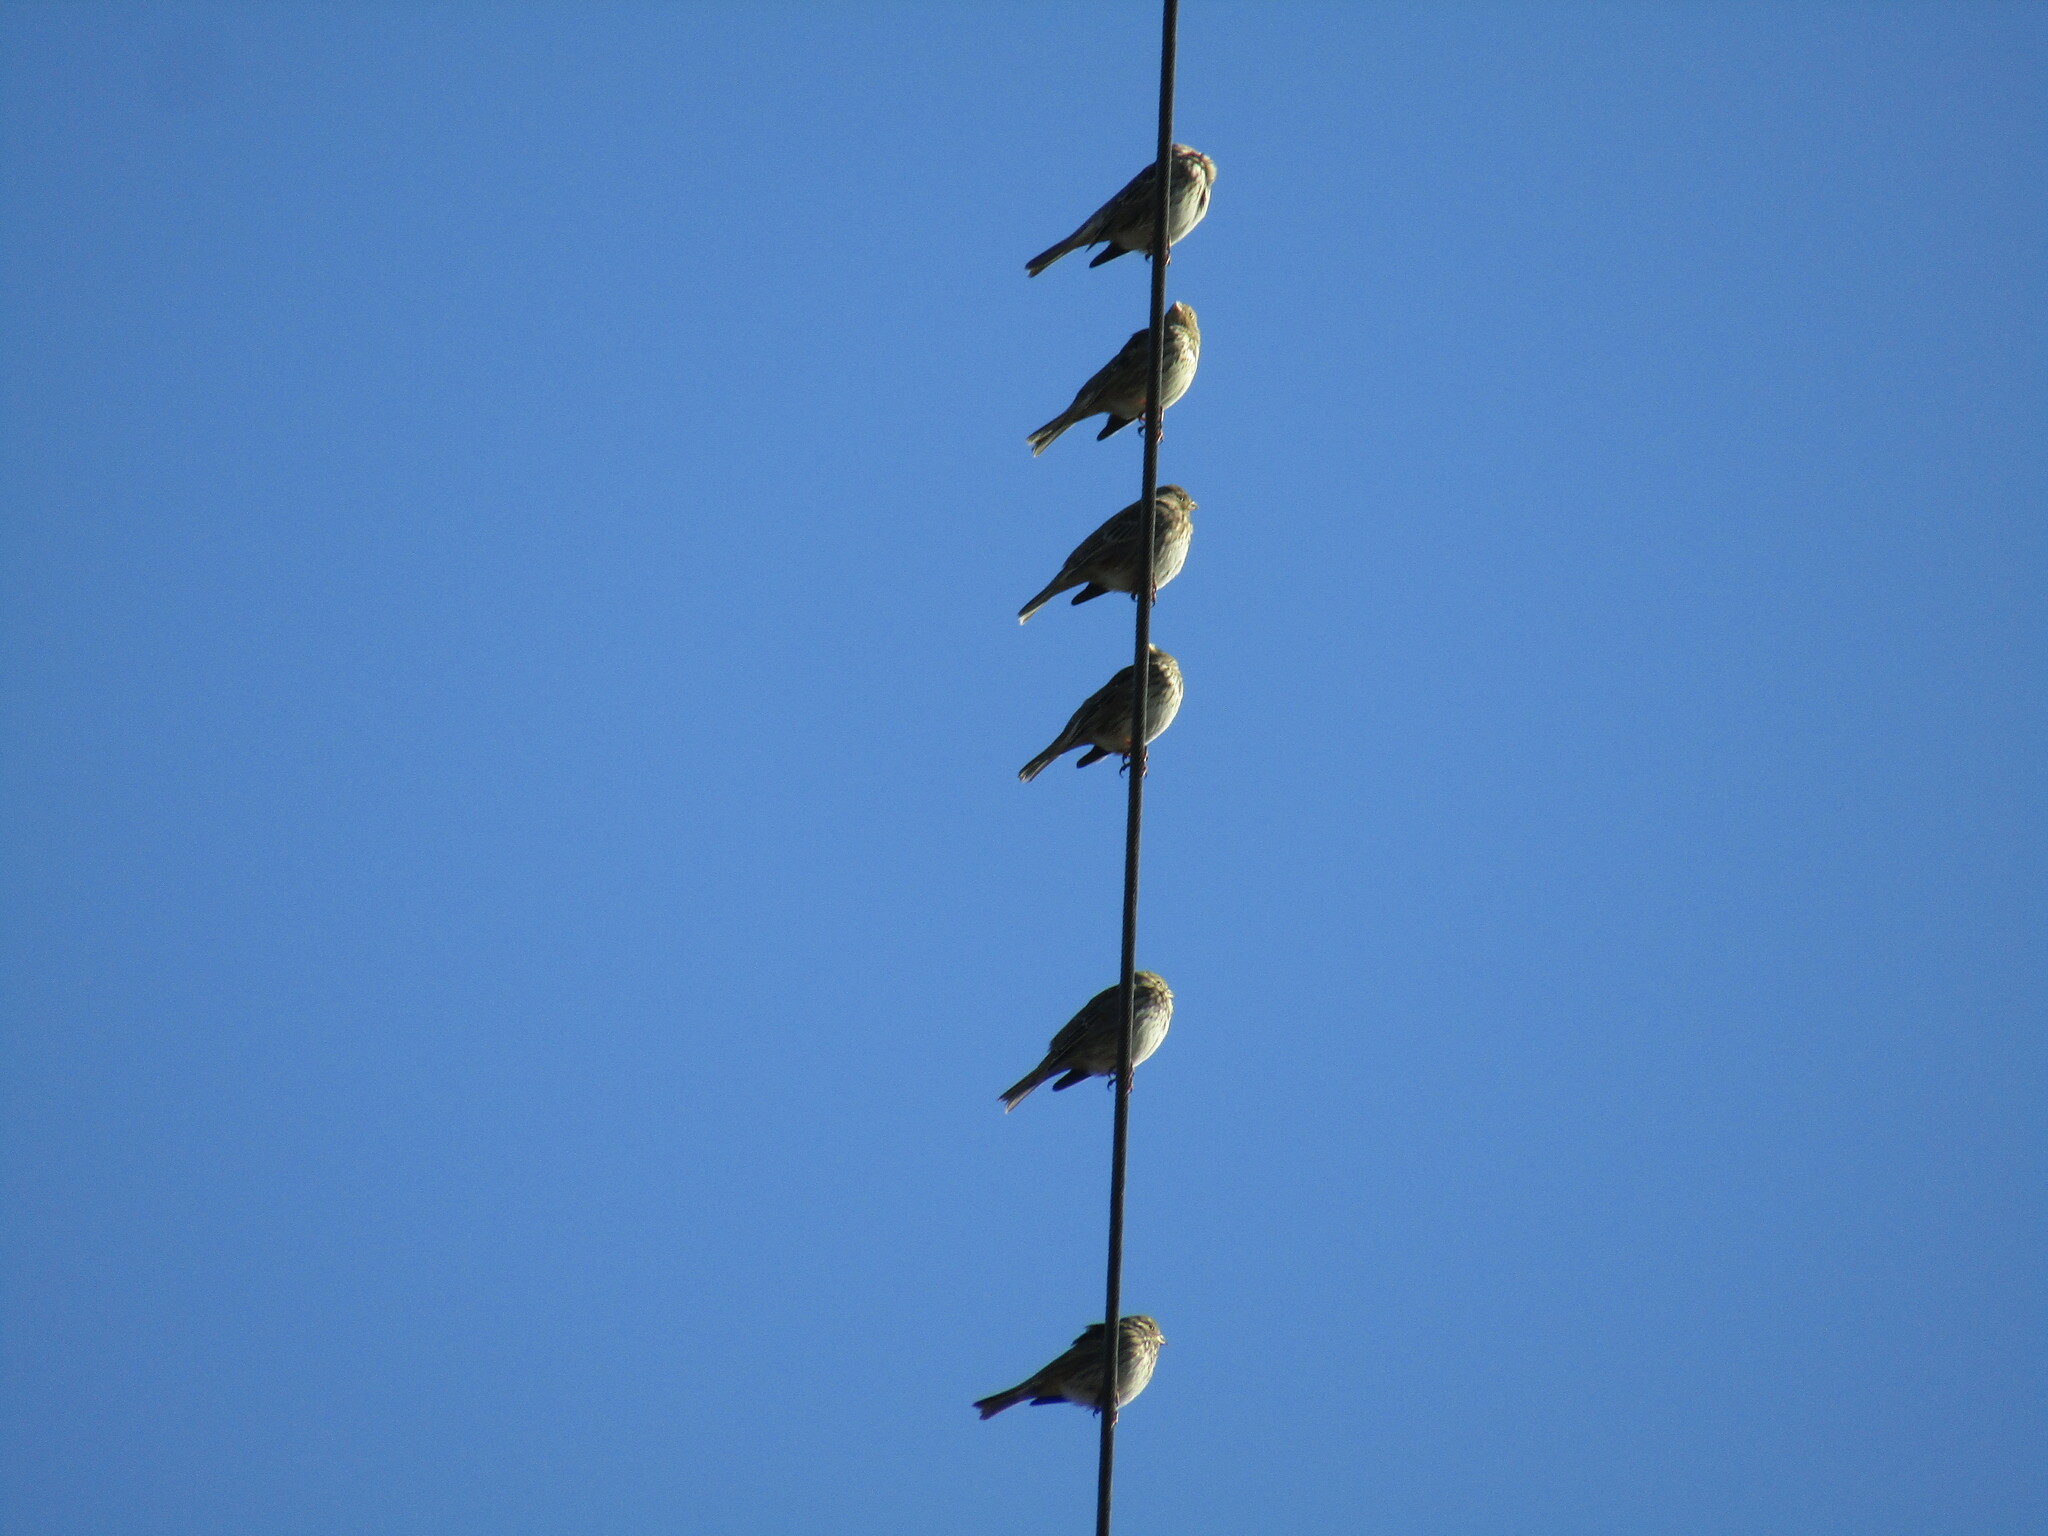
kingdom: Animalia
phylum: Chordata
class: Aves
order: Passeriformes
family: Emberizidae
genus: Emberiza
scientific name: Emberiza calandra
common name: Corn bunting
